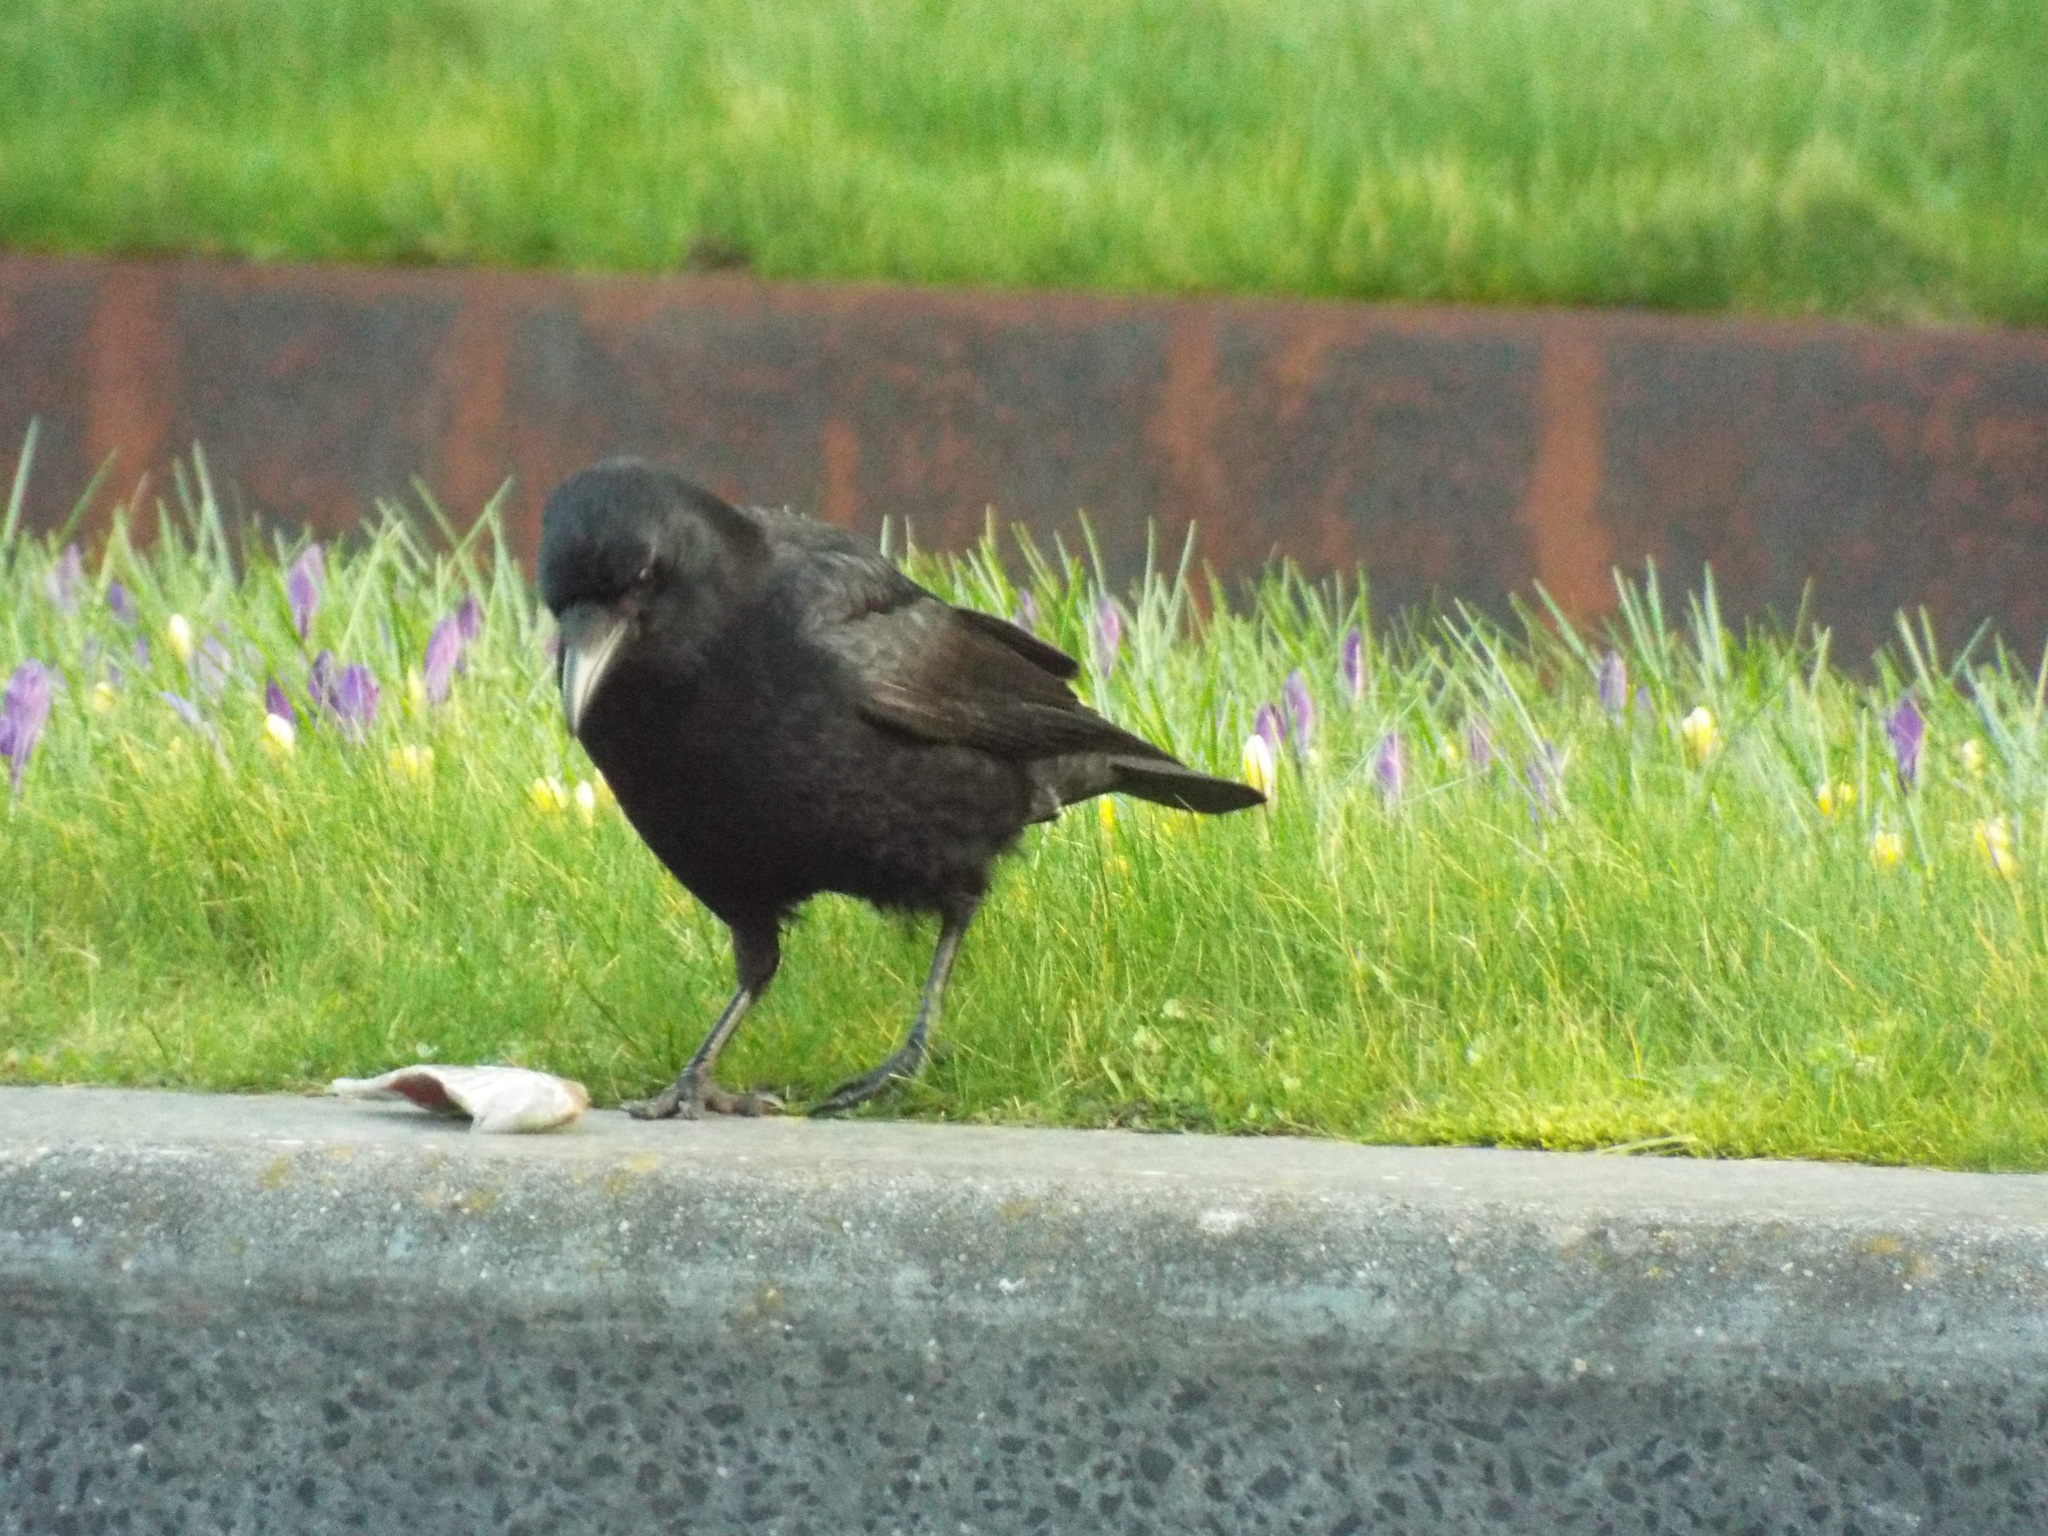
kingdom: Animalia
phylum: Chordata
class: Aves
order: Passeriformes
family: Corvidae
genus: Corvus
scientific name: Corvus corone
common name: Carrion crow
